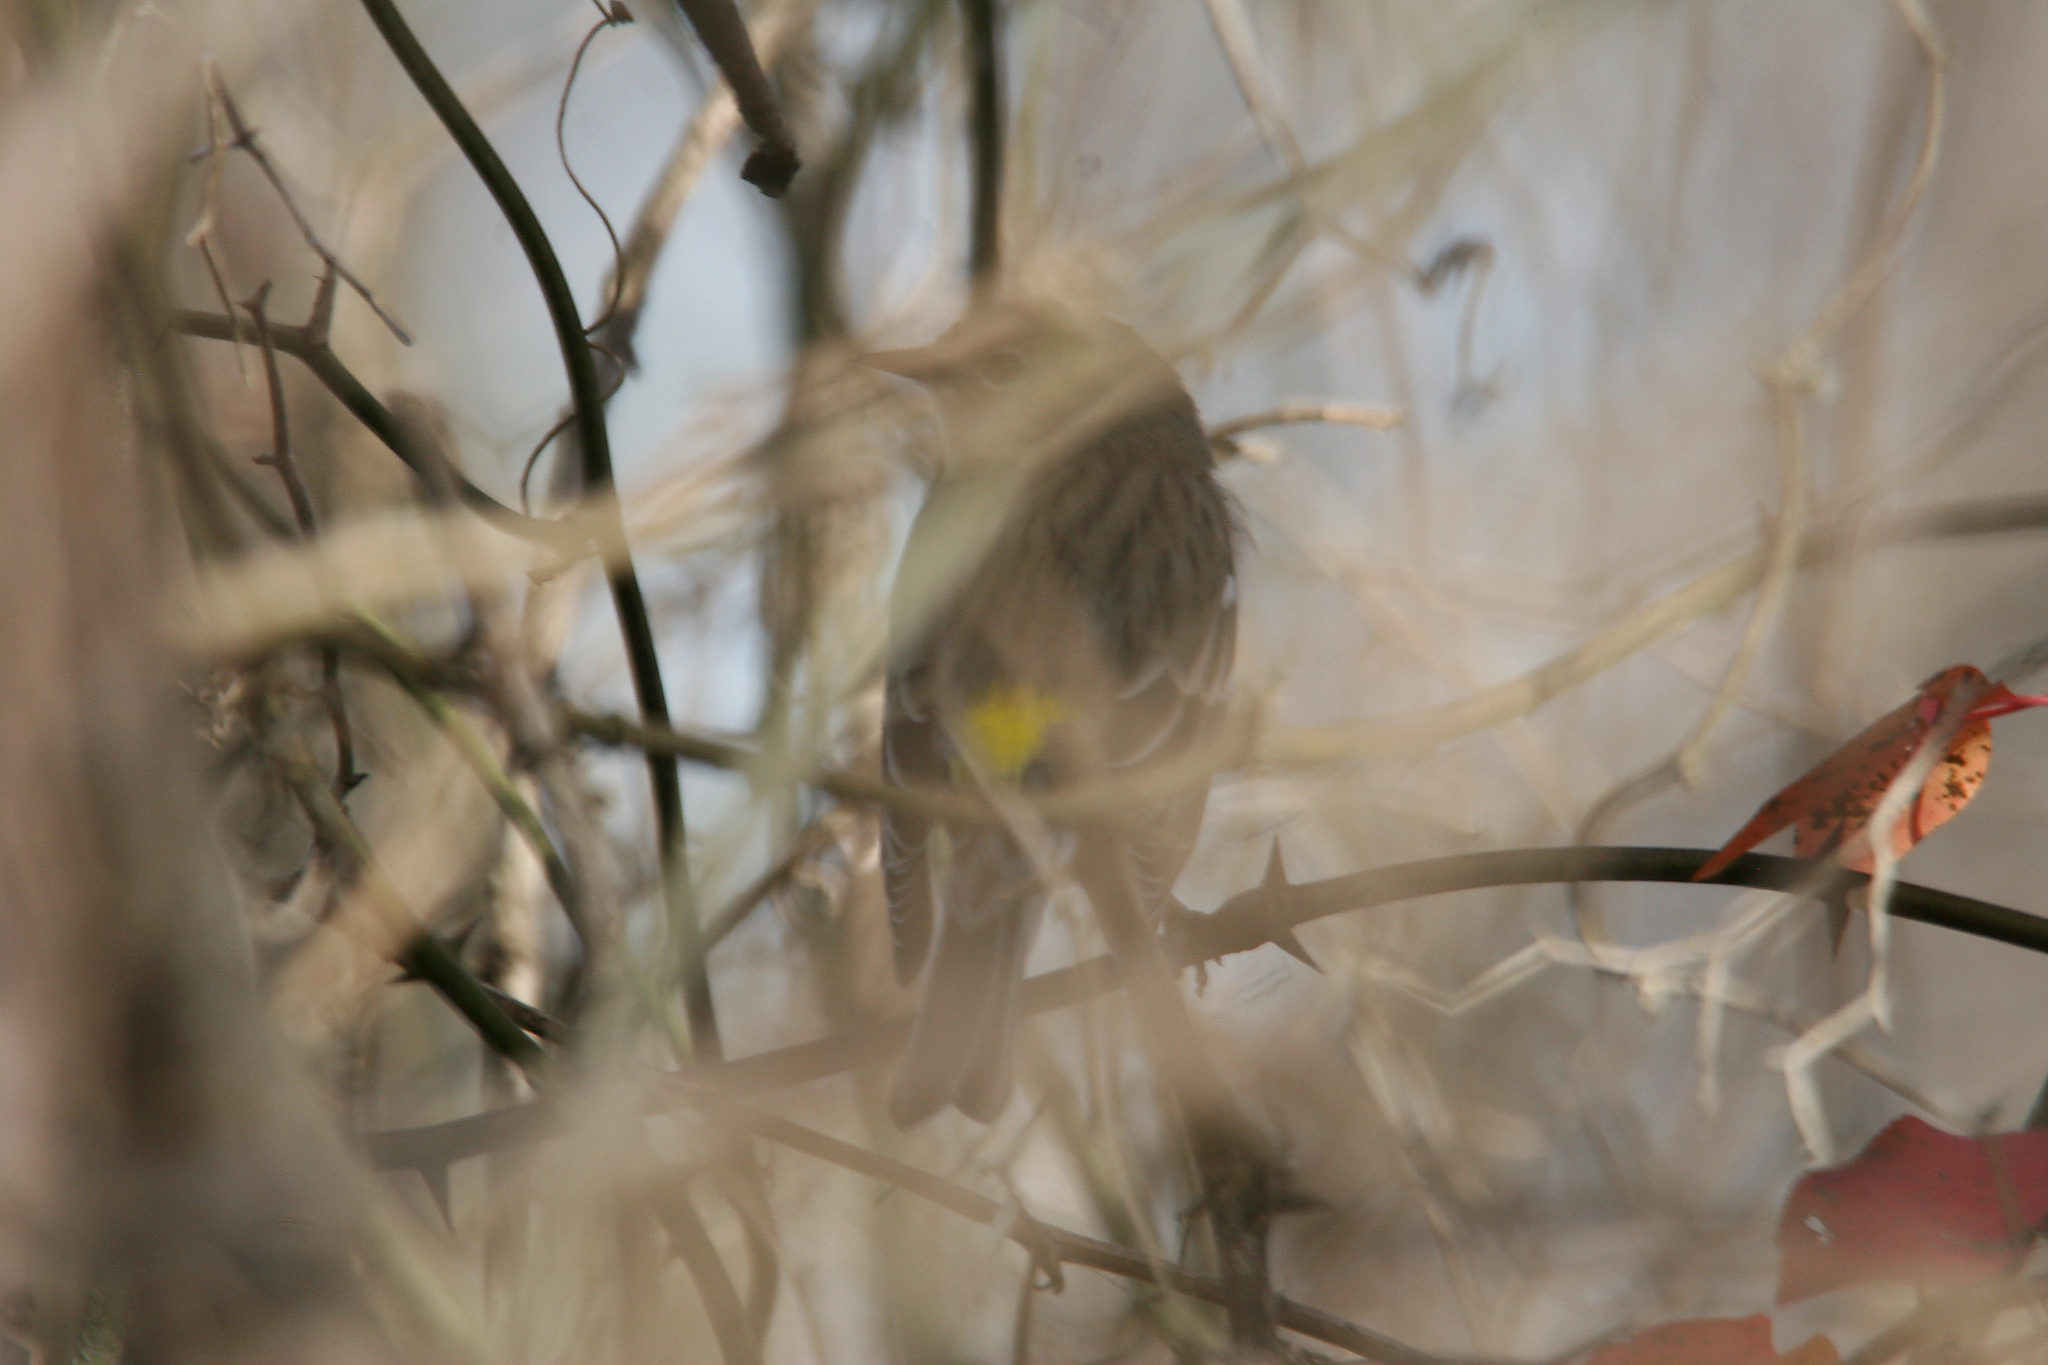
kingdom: Animalia
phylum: Chordata
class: Aves
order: Passeriformes
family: Parulidae
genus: Setophaga
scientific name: Setophaga coronata
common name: Myrtle warbler
